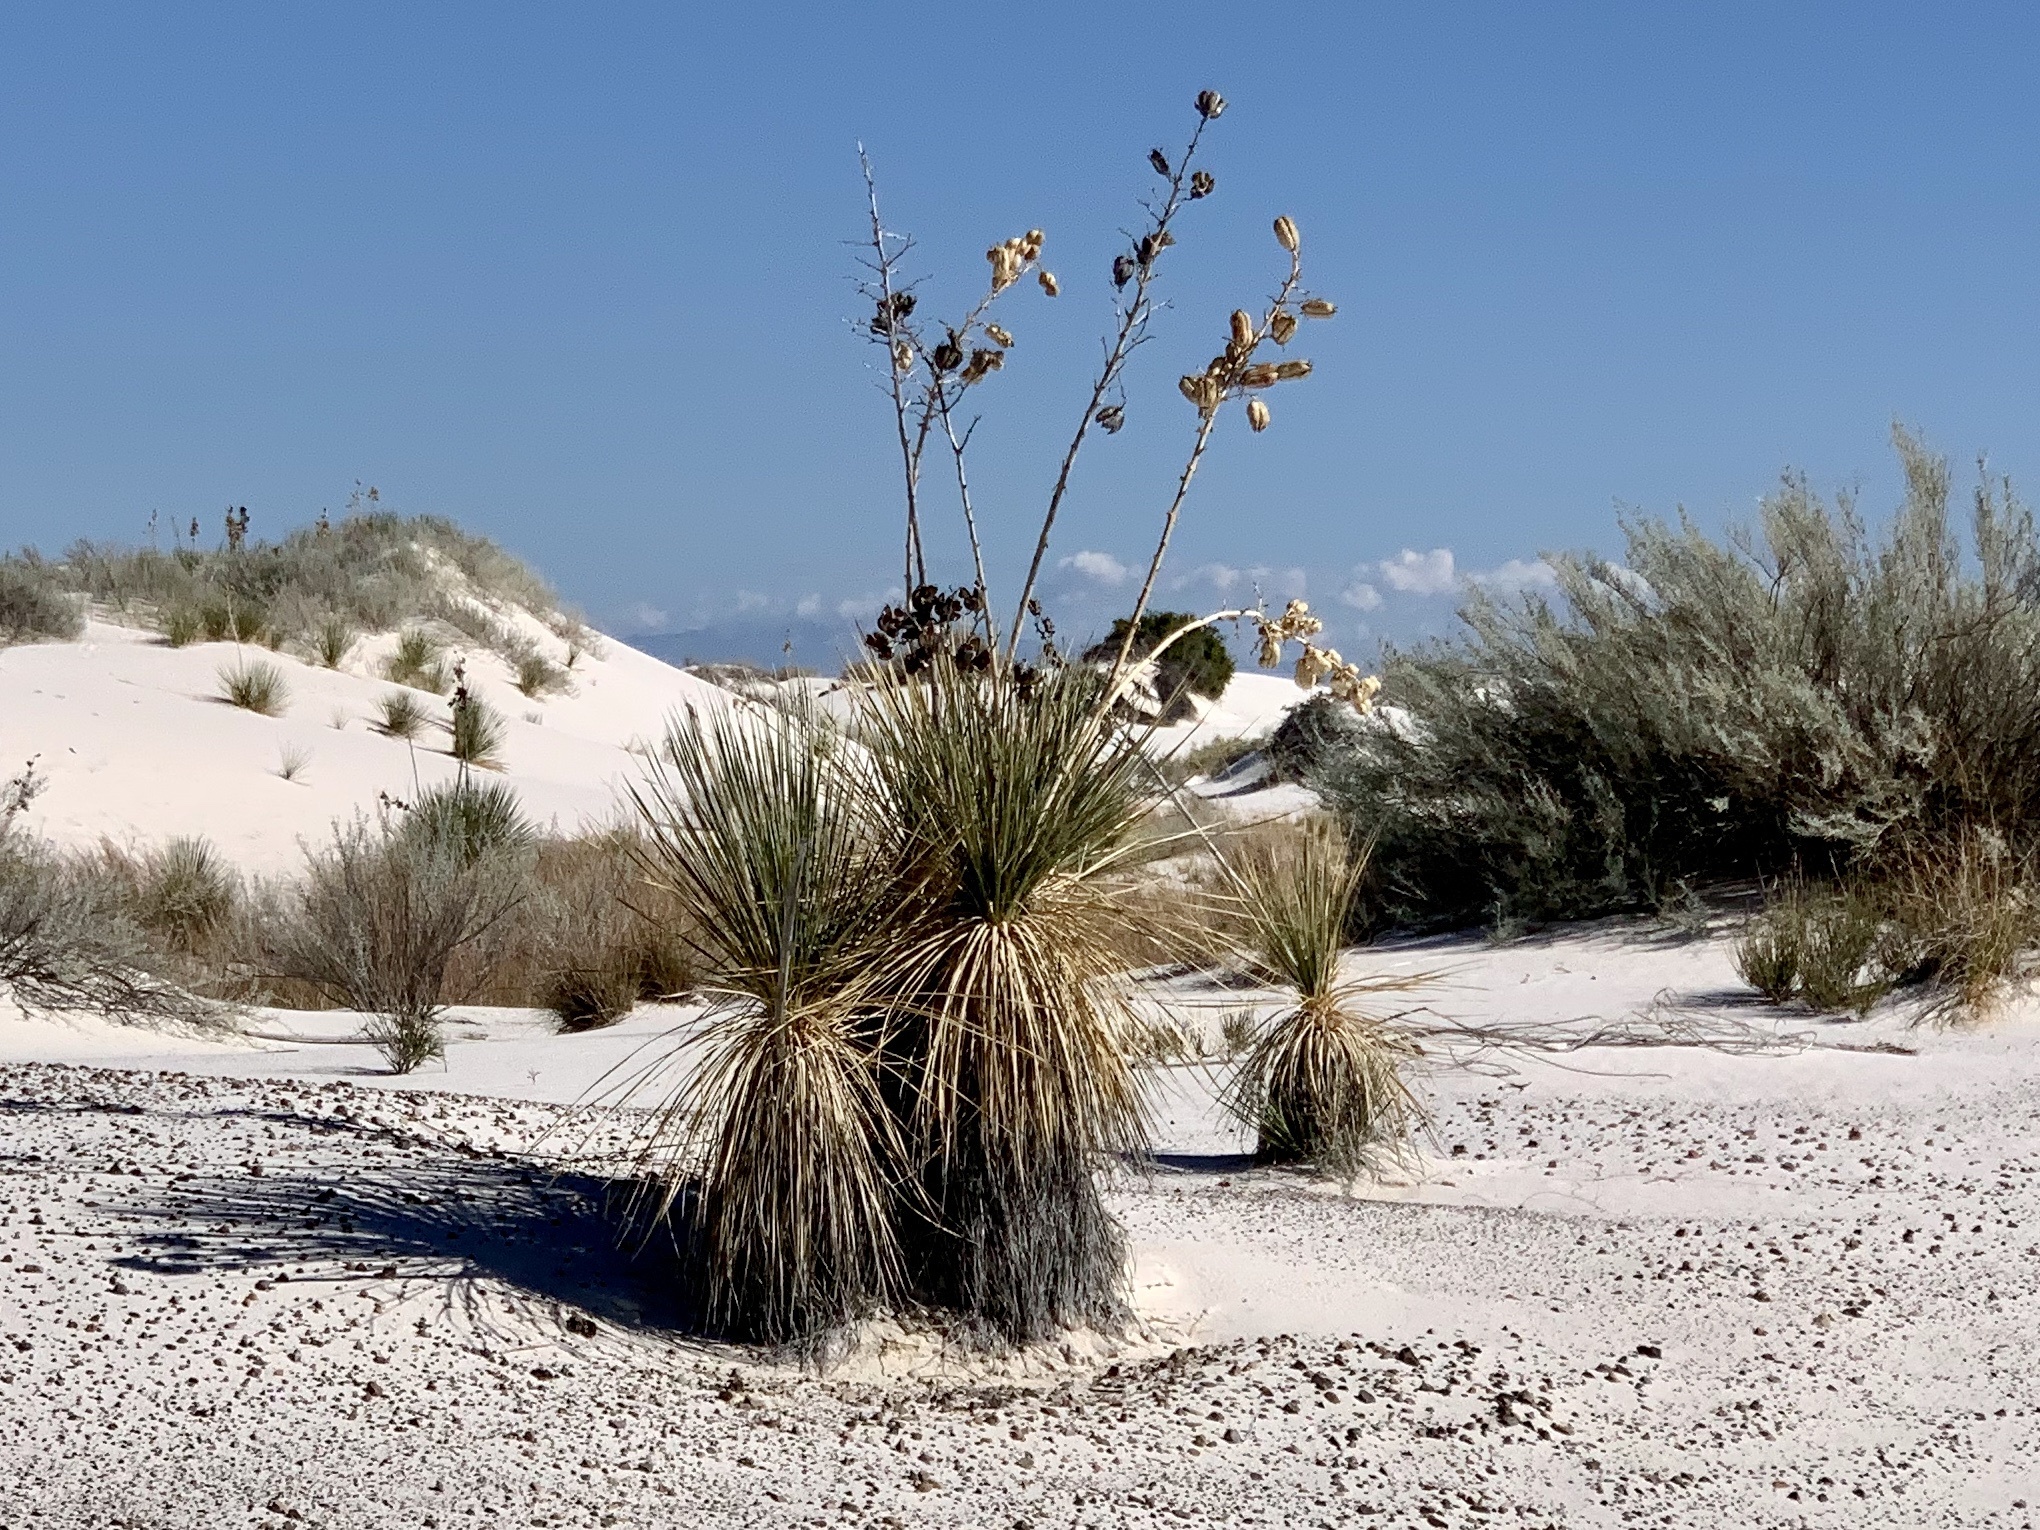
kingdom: Plantae
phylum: Tracheophyta
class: Liliopsida
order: Asparagales
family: Asparagaceae
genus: Yucca
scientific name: Yucca elata
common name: Palmella
